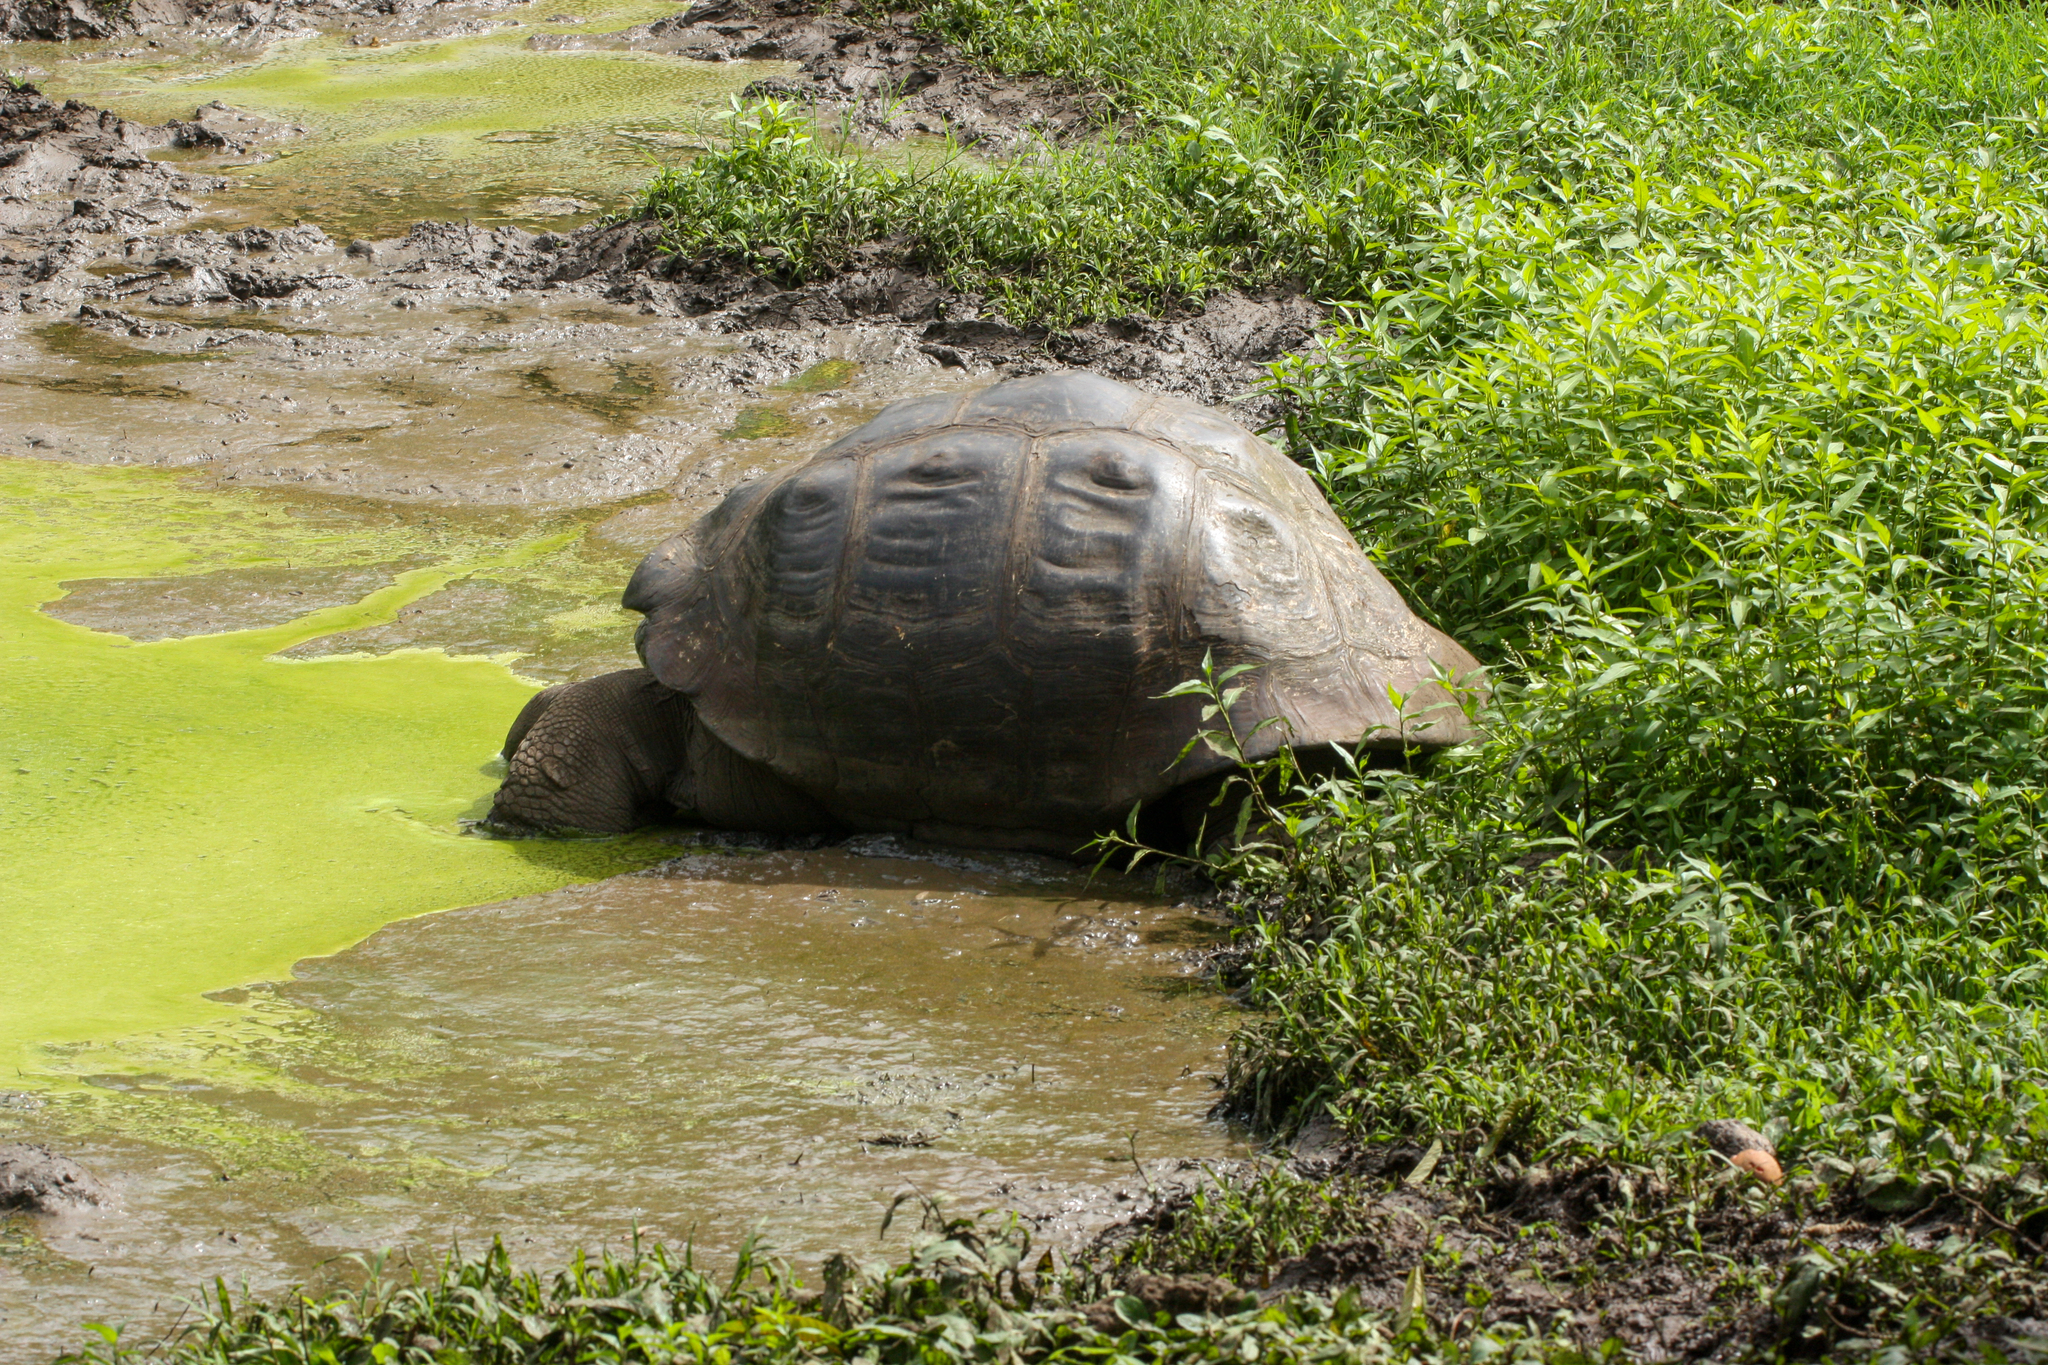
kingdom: Animalia
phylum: Chordata
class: Testudines
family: Testudinidae
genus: Chelonoidis
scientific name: Chelonoidis porteri
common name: Indefatigable island giant tortoise
